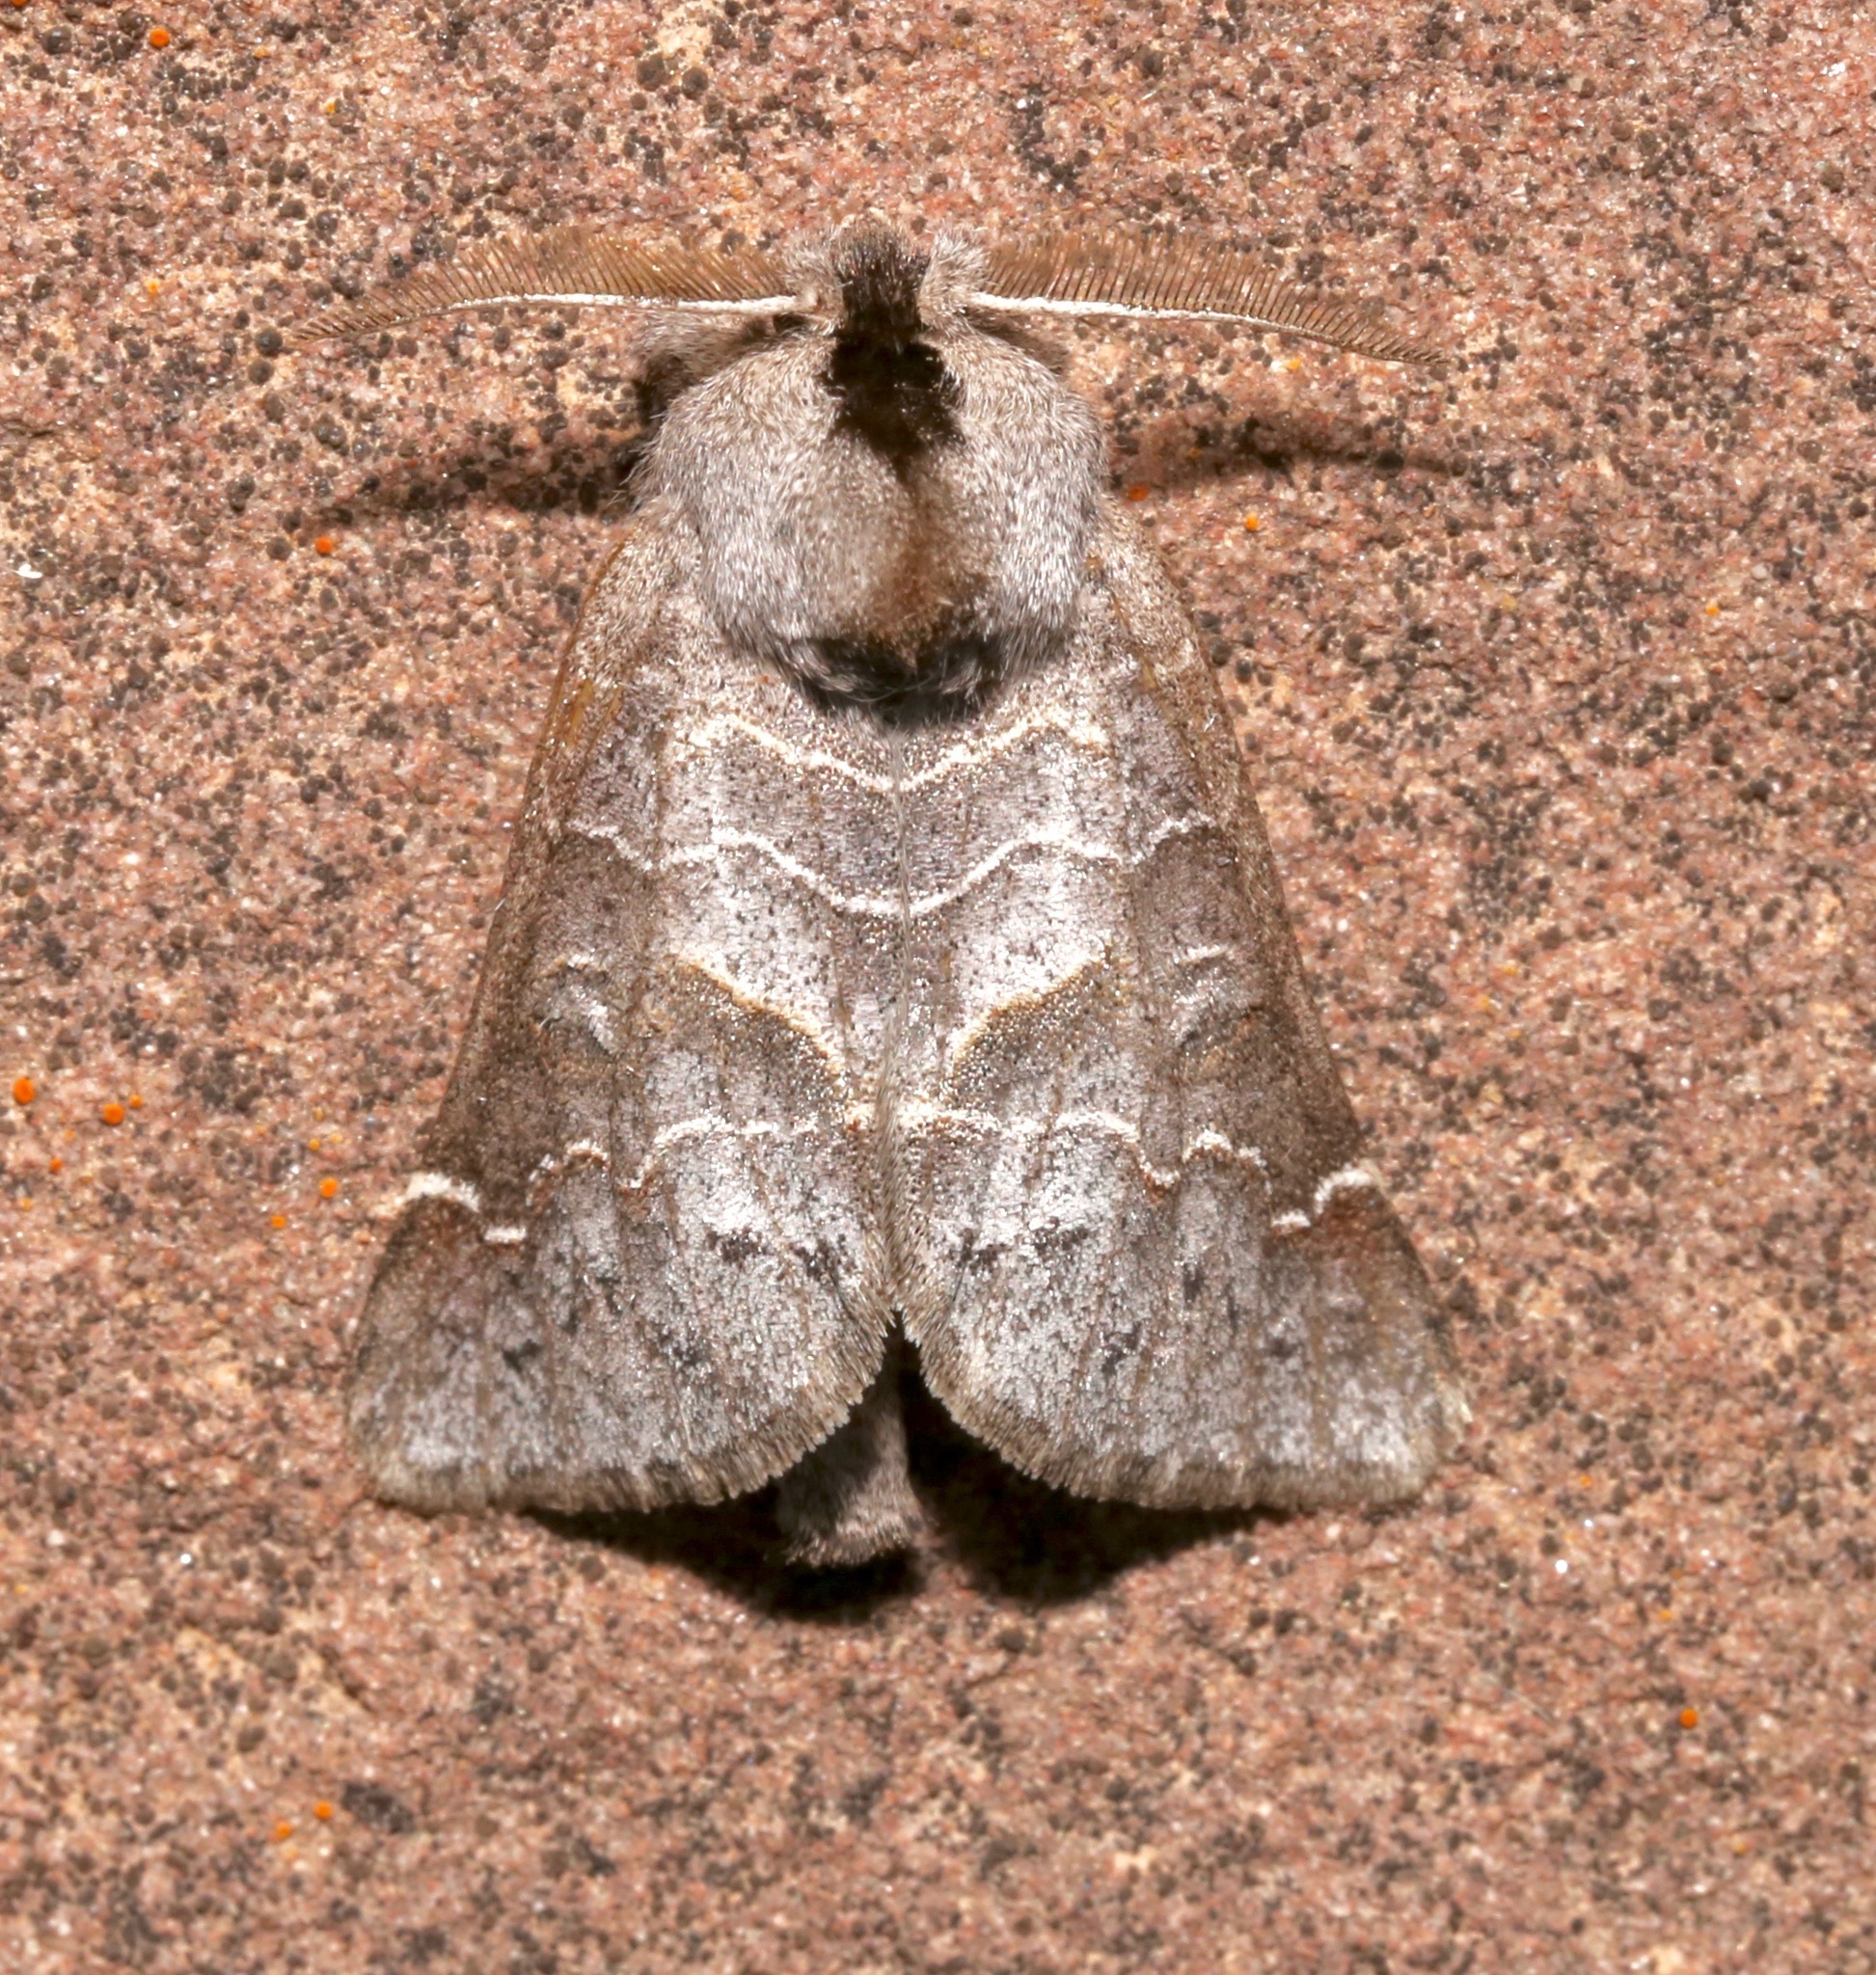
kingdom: Animalia
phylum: Arthropoda
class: Insecta
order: Lepidoptera
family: Notodontidae
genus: Clostera
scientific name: Clostera paraphora
